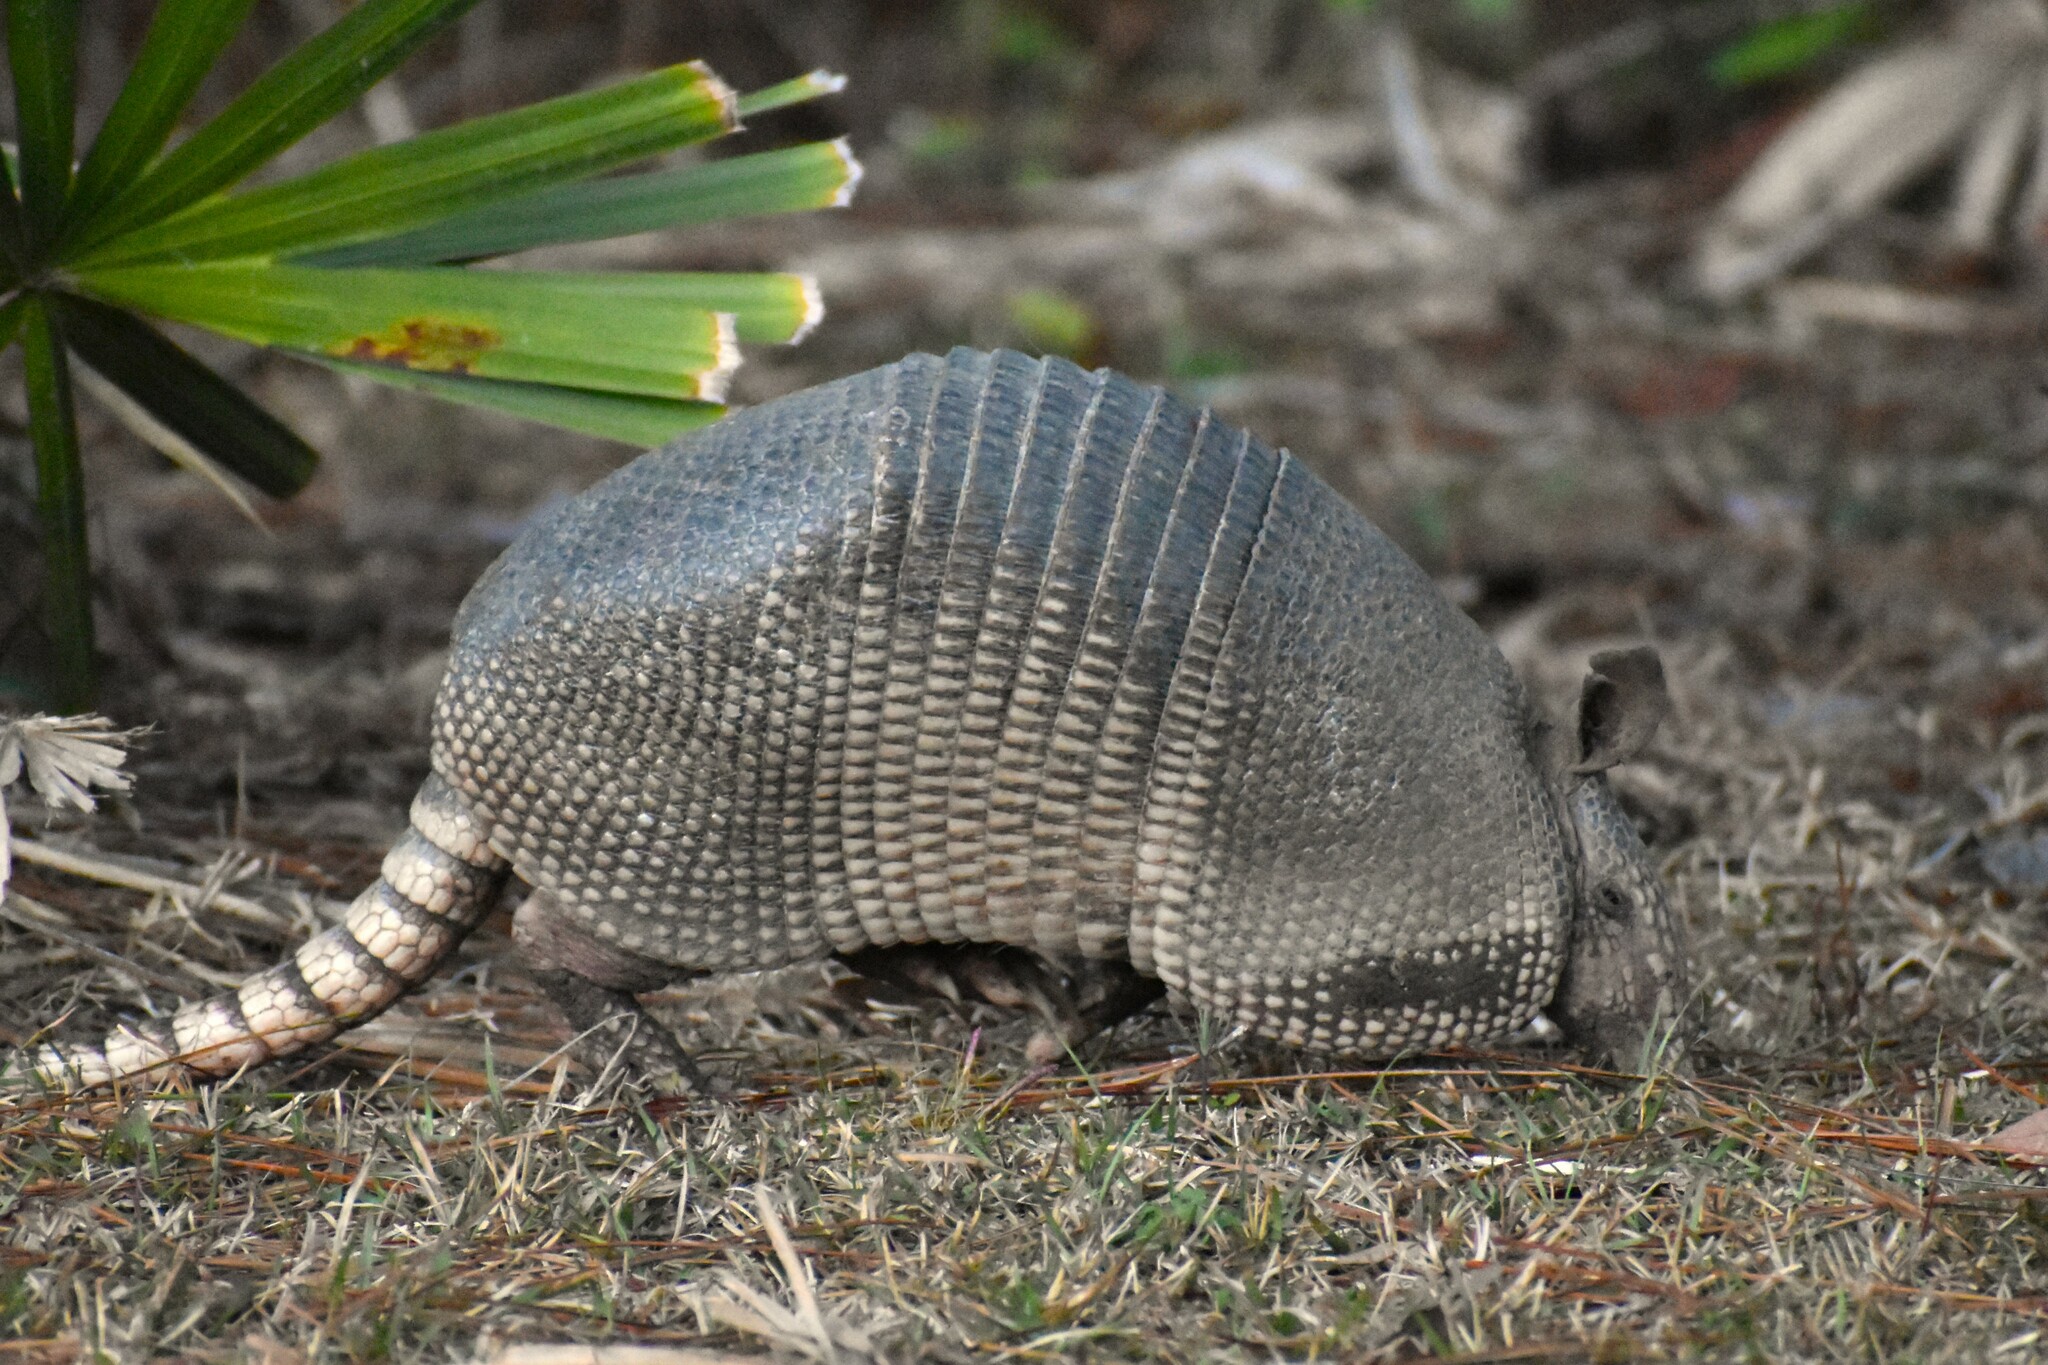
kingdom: Animalia
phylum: Chordata
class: Mammalia
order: Cingulata
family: Dasypodidae
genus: Dasypus
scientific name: Dasypus novemcinctus
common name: Nine-banded armadillo
